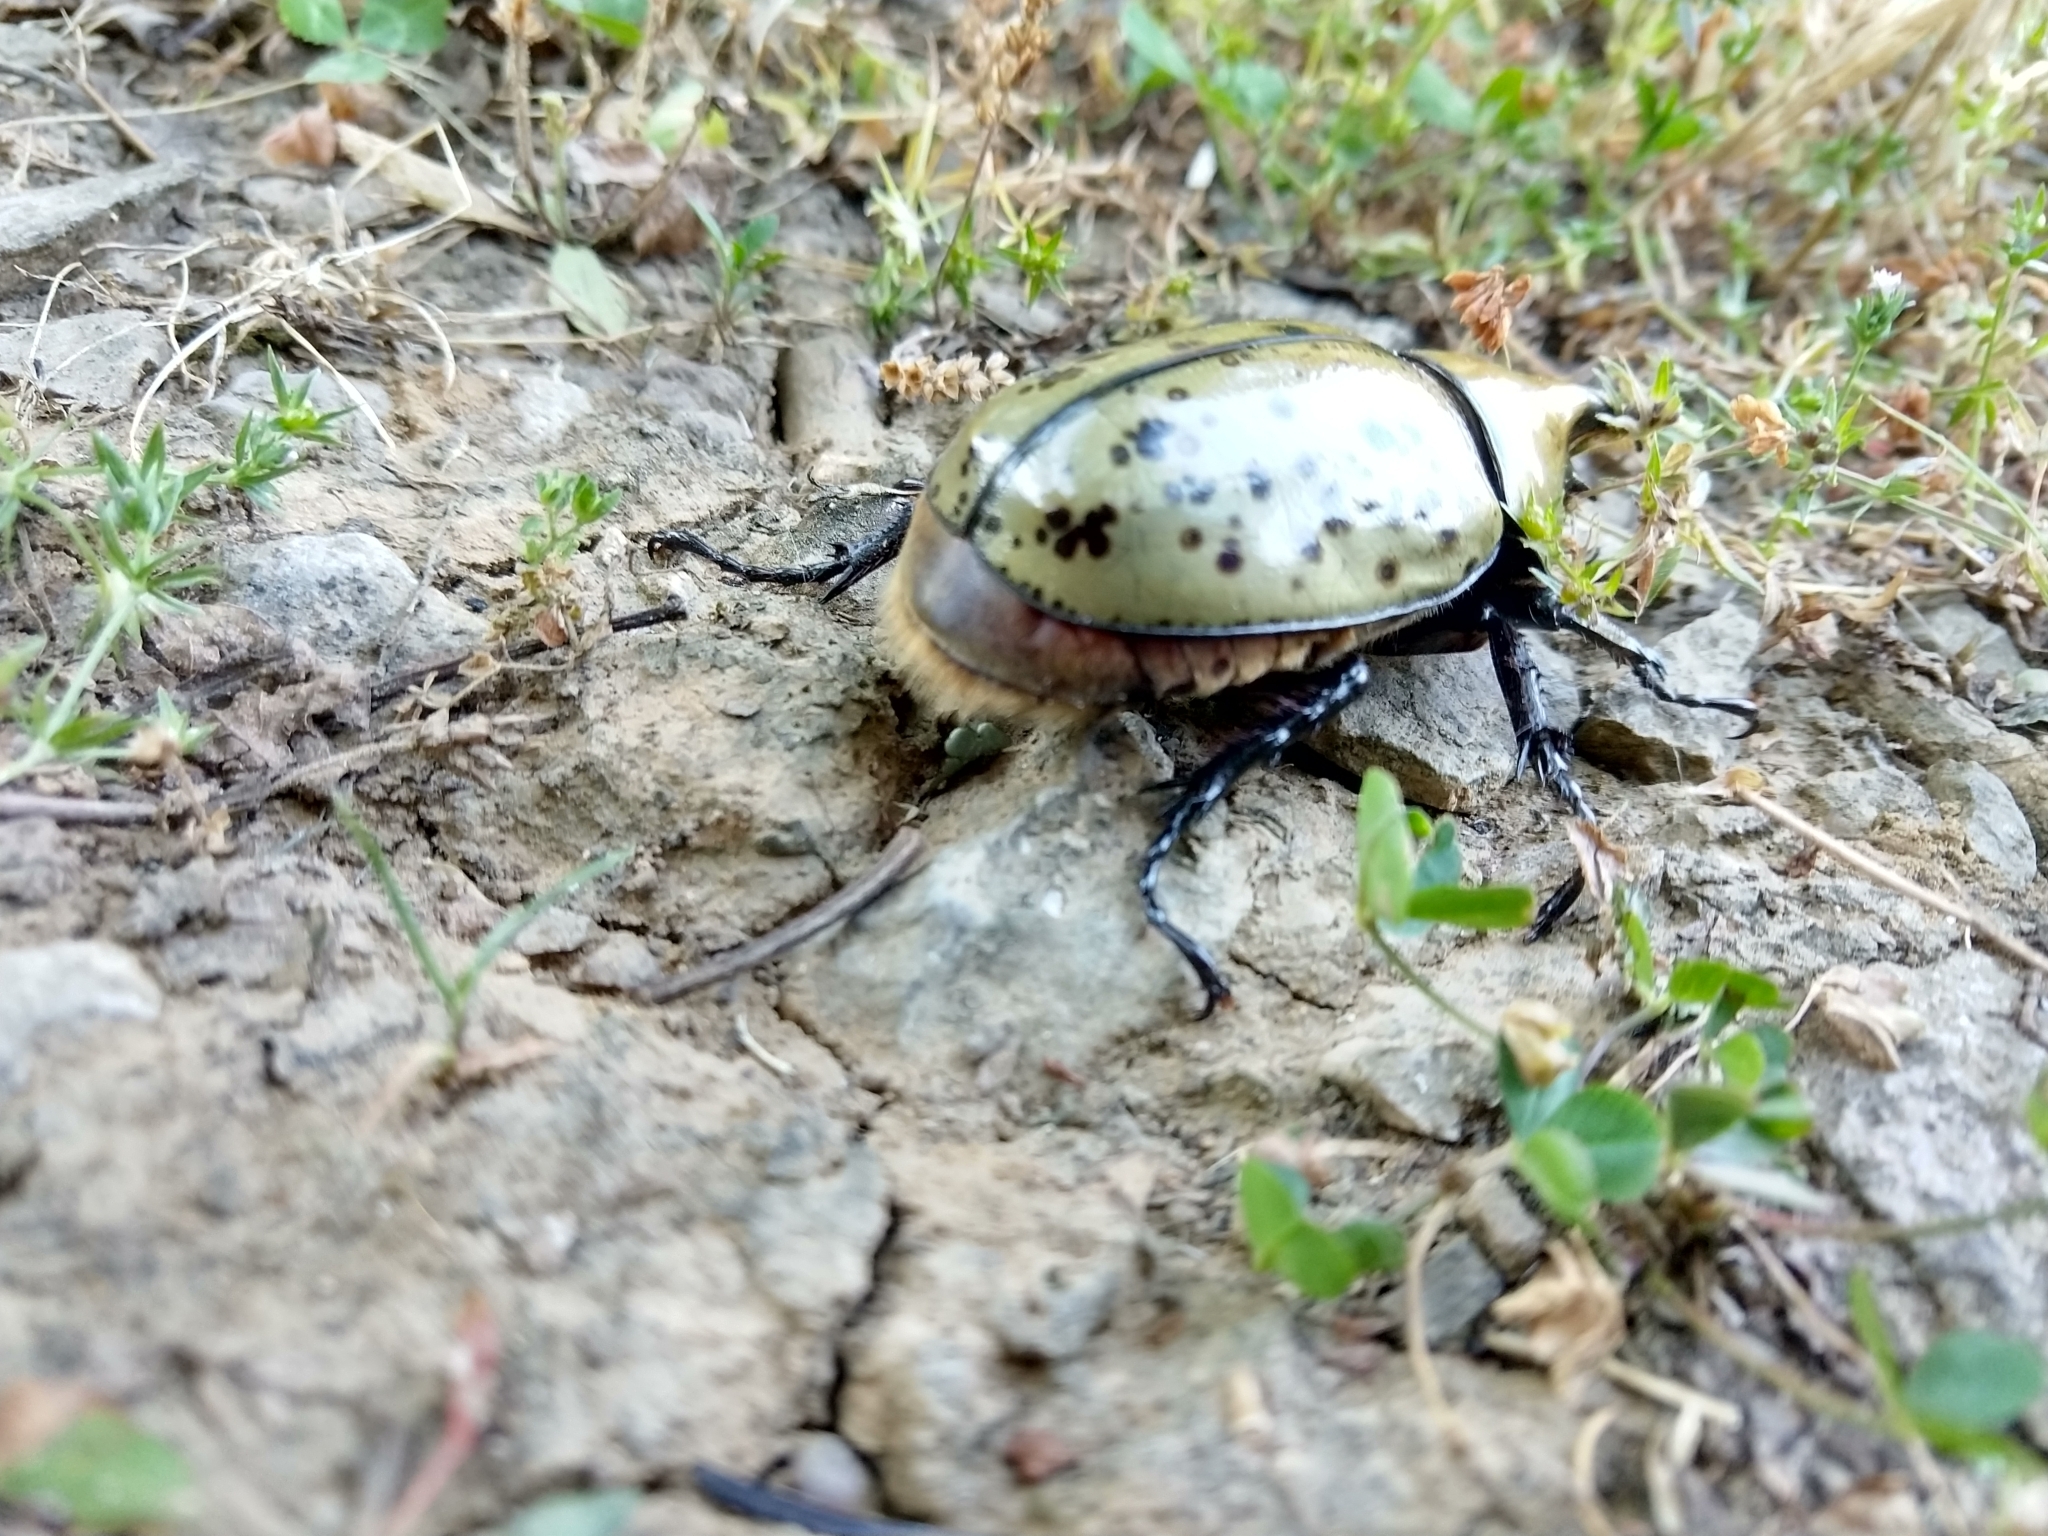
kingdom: Animalia
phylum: Arthropoda
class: Insecta
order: Coleoptera
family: Scarabaeidae
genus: Dynastes
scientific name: Dynastes tityus
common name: Eastern hercules beetle
